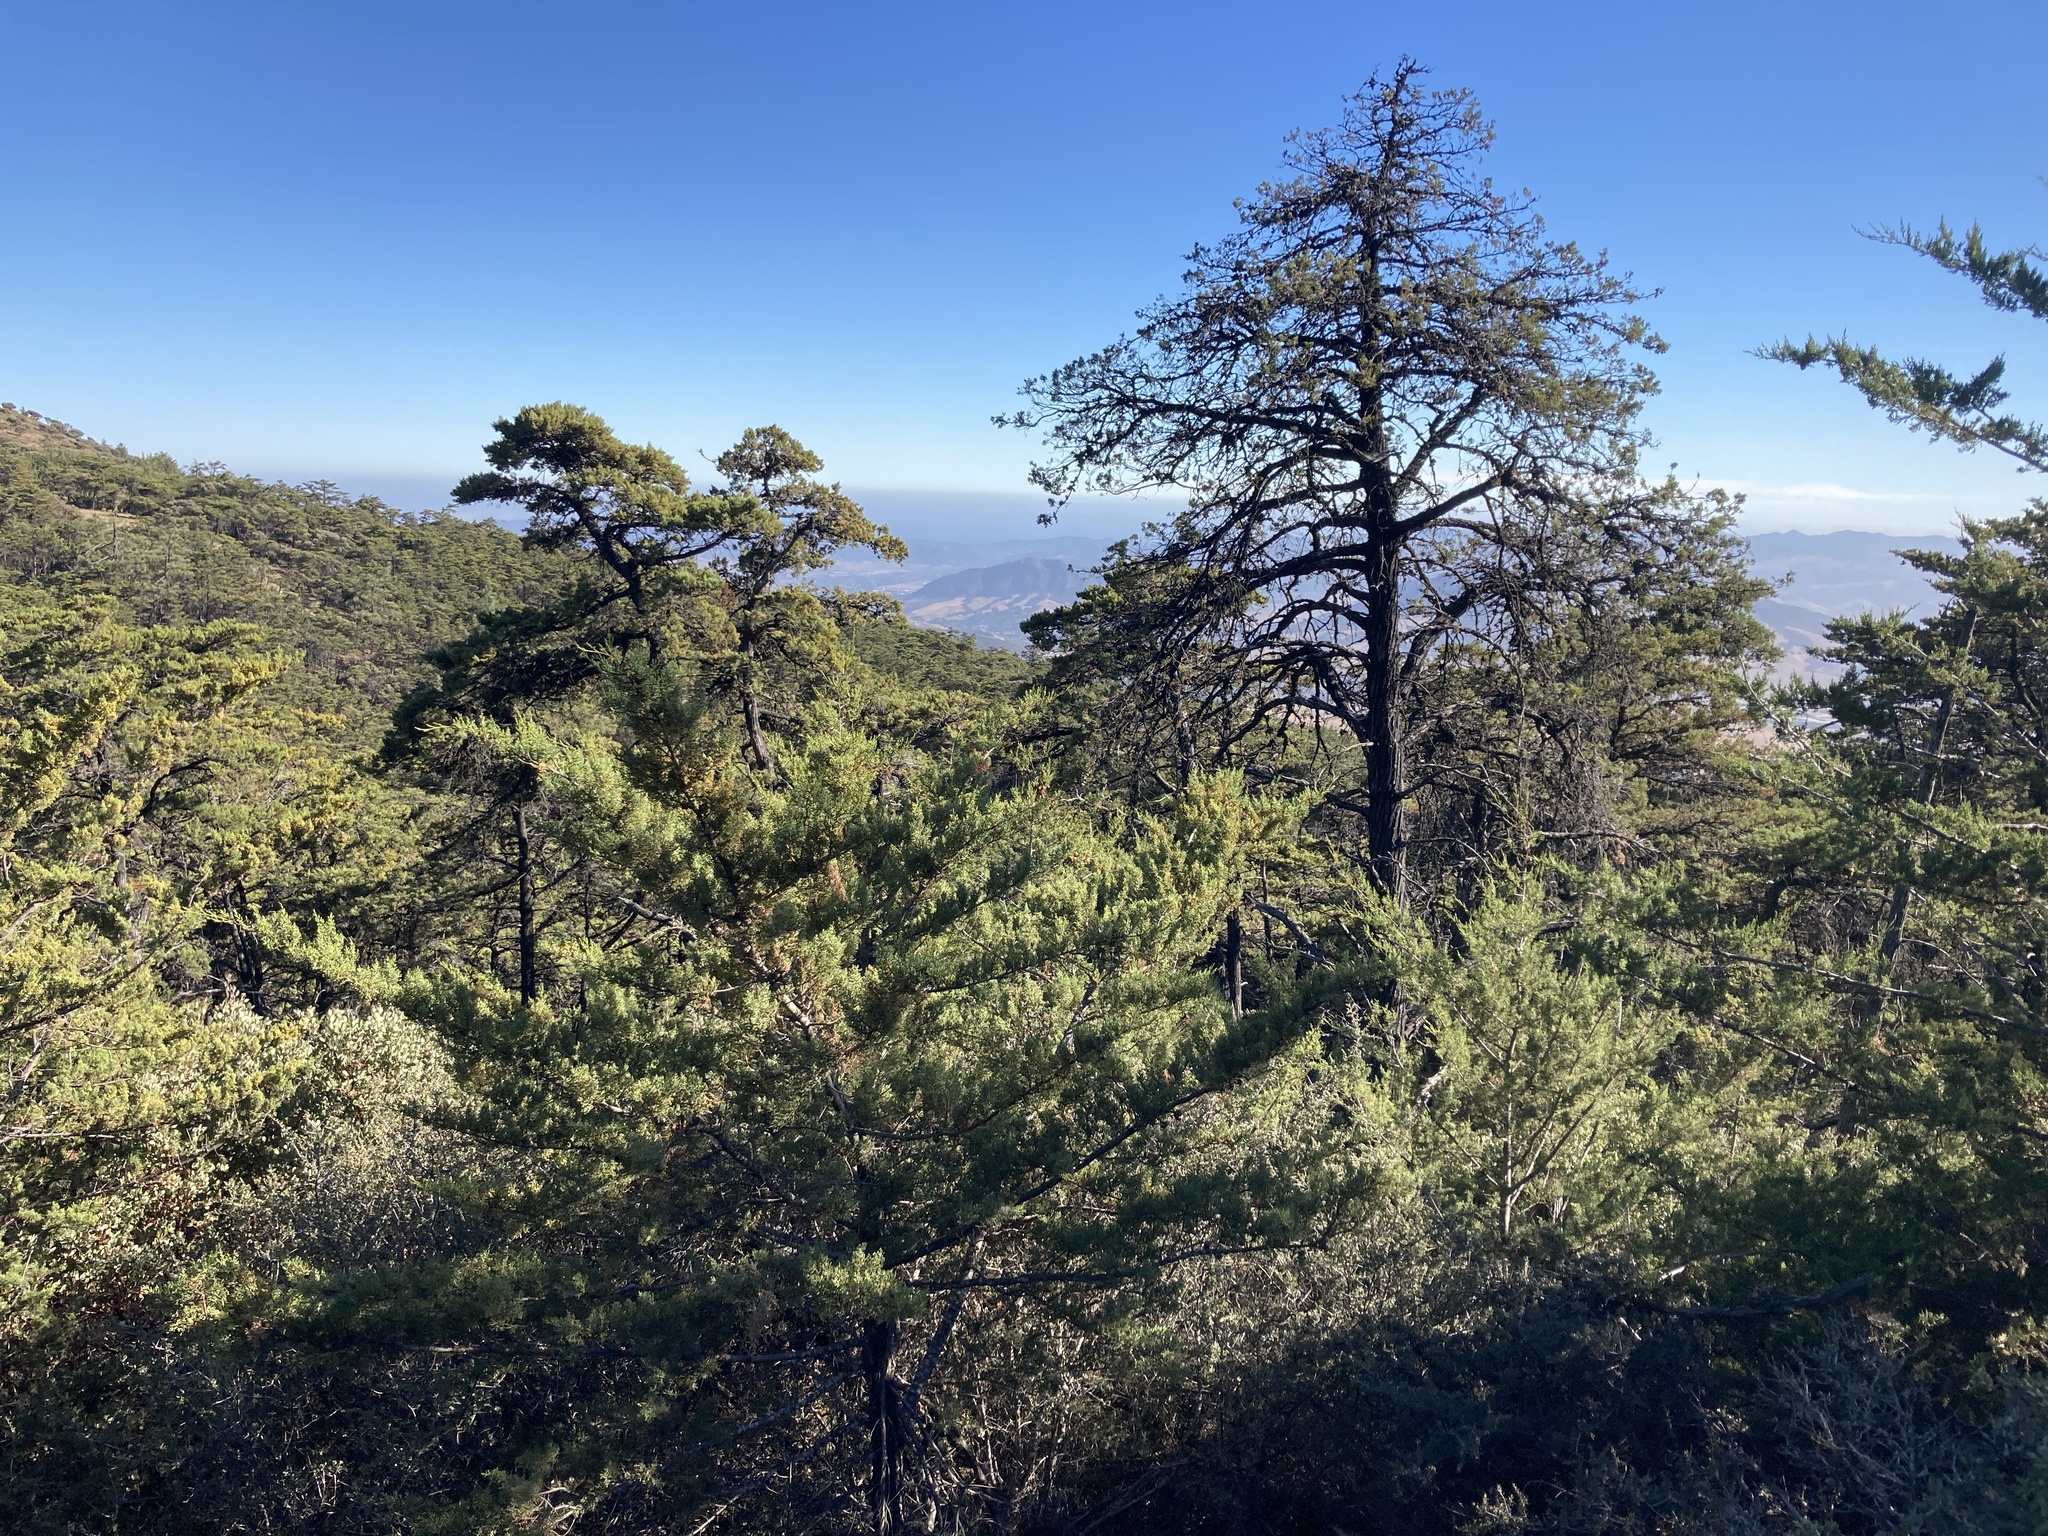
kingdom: Plantae
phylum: Tracheophyta
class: Pinopsida
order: Pinales
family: Cupressaceae
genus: Cupressus
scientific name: Cupressus sargentii
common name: Sargent cypress
